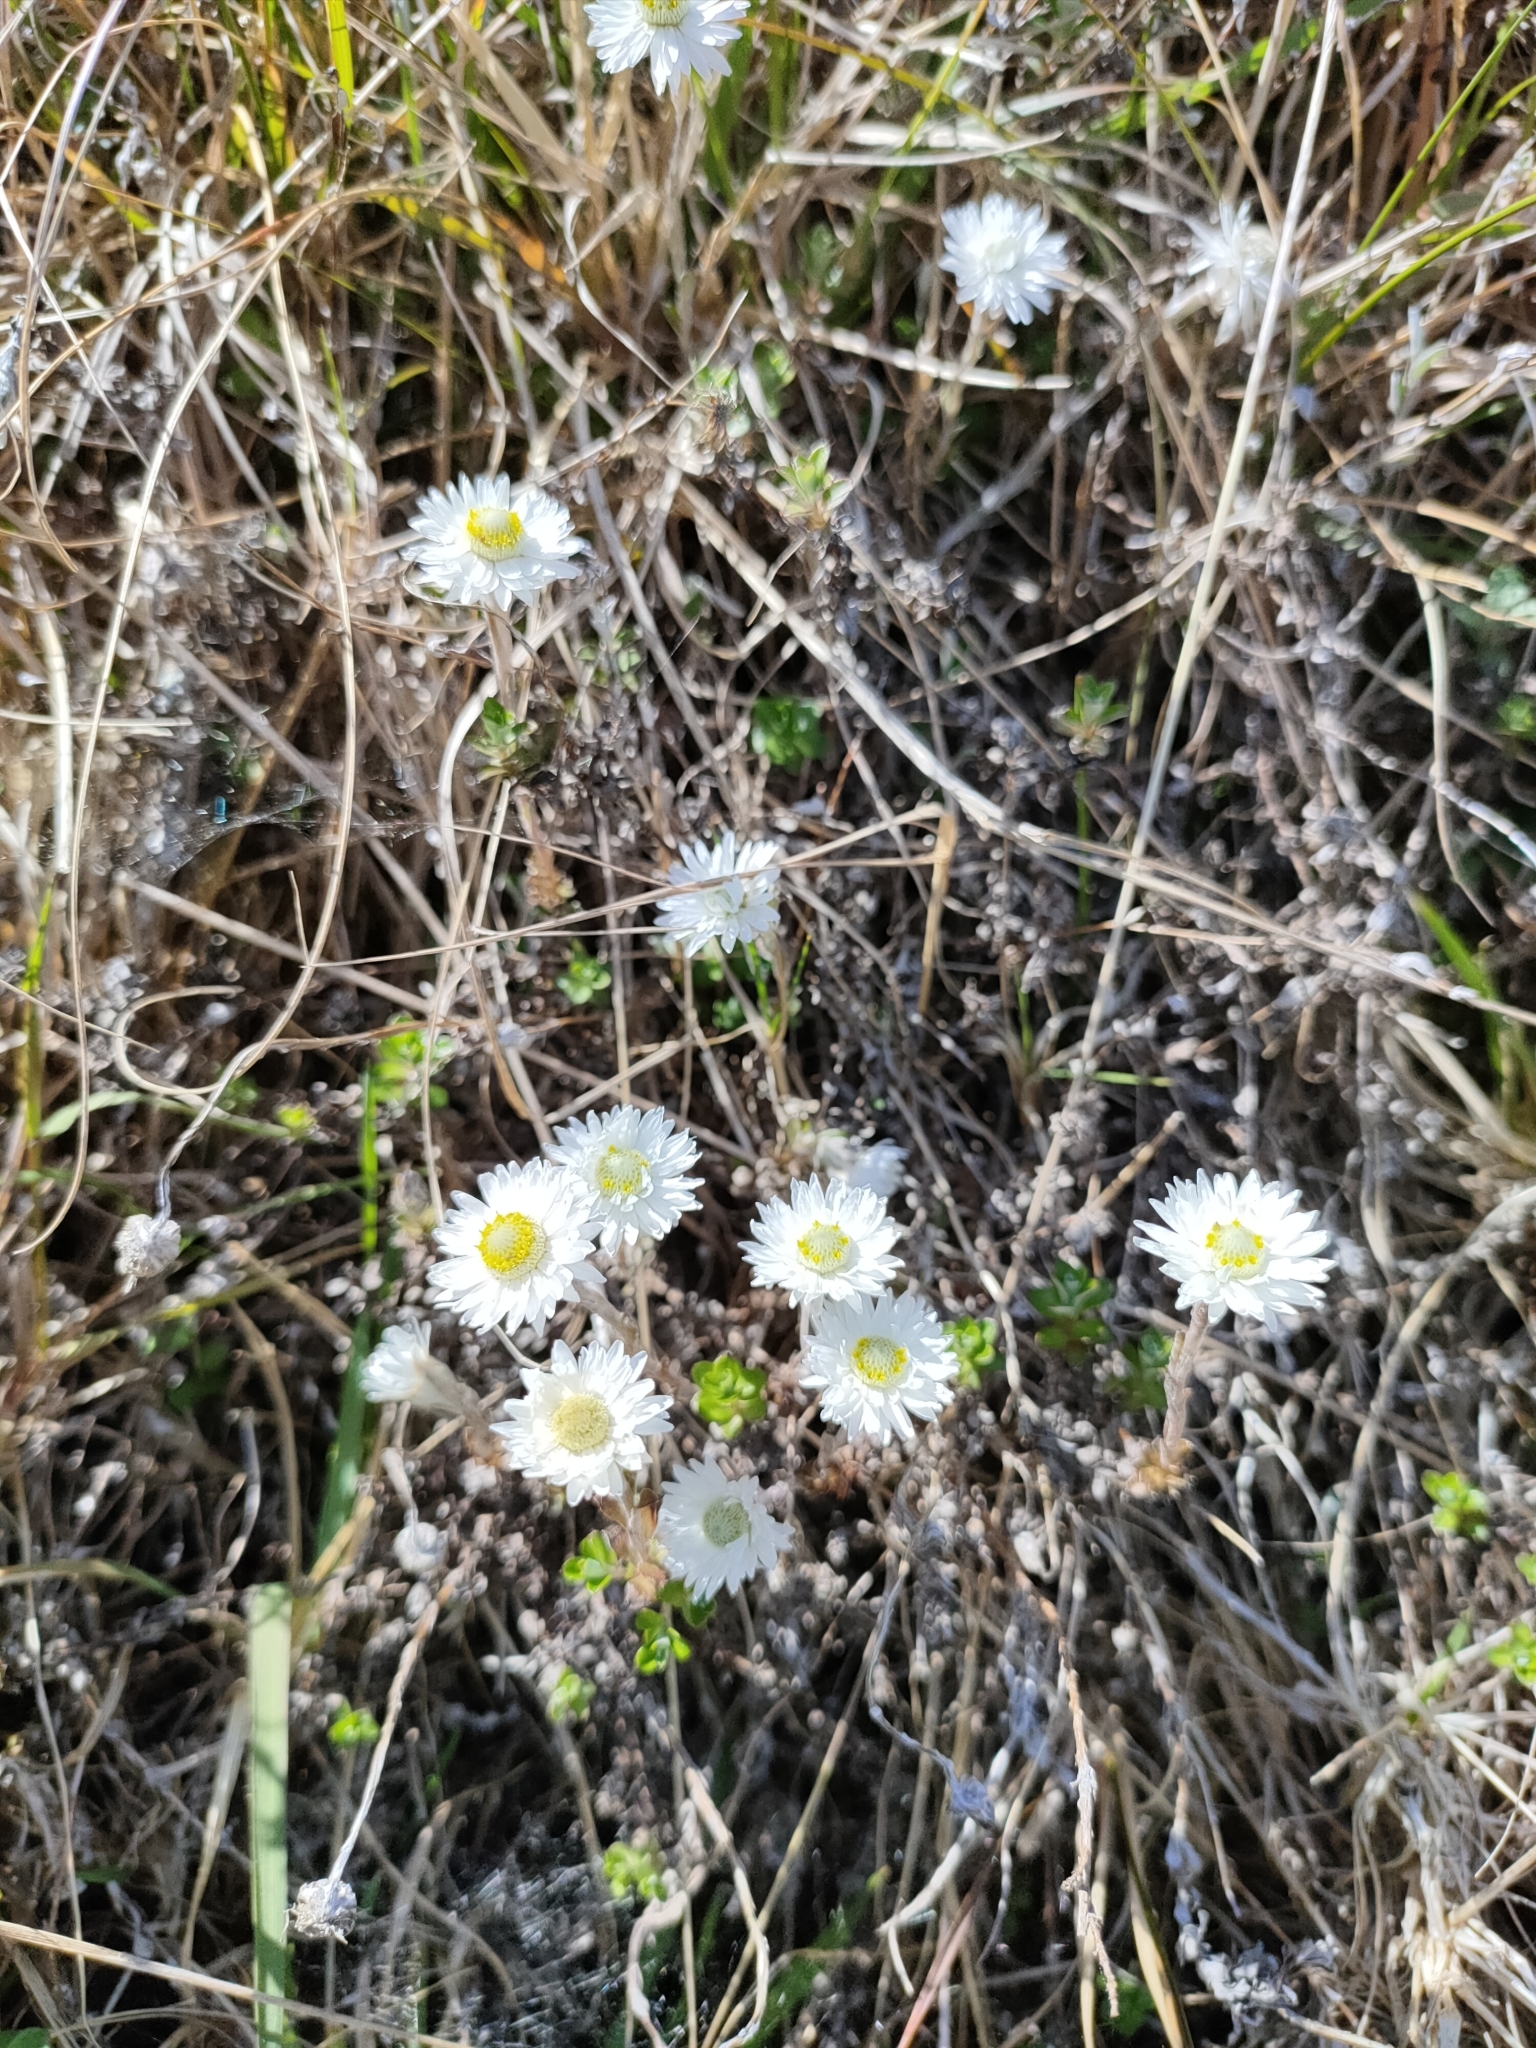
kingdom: Plantae
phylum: Tracheophyta
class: Magnoliopsida
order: Asterales
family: Asteraceae
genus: Anaphalioides
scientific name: Anaphalioides bellidioides
